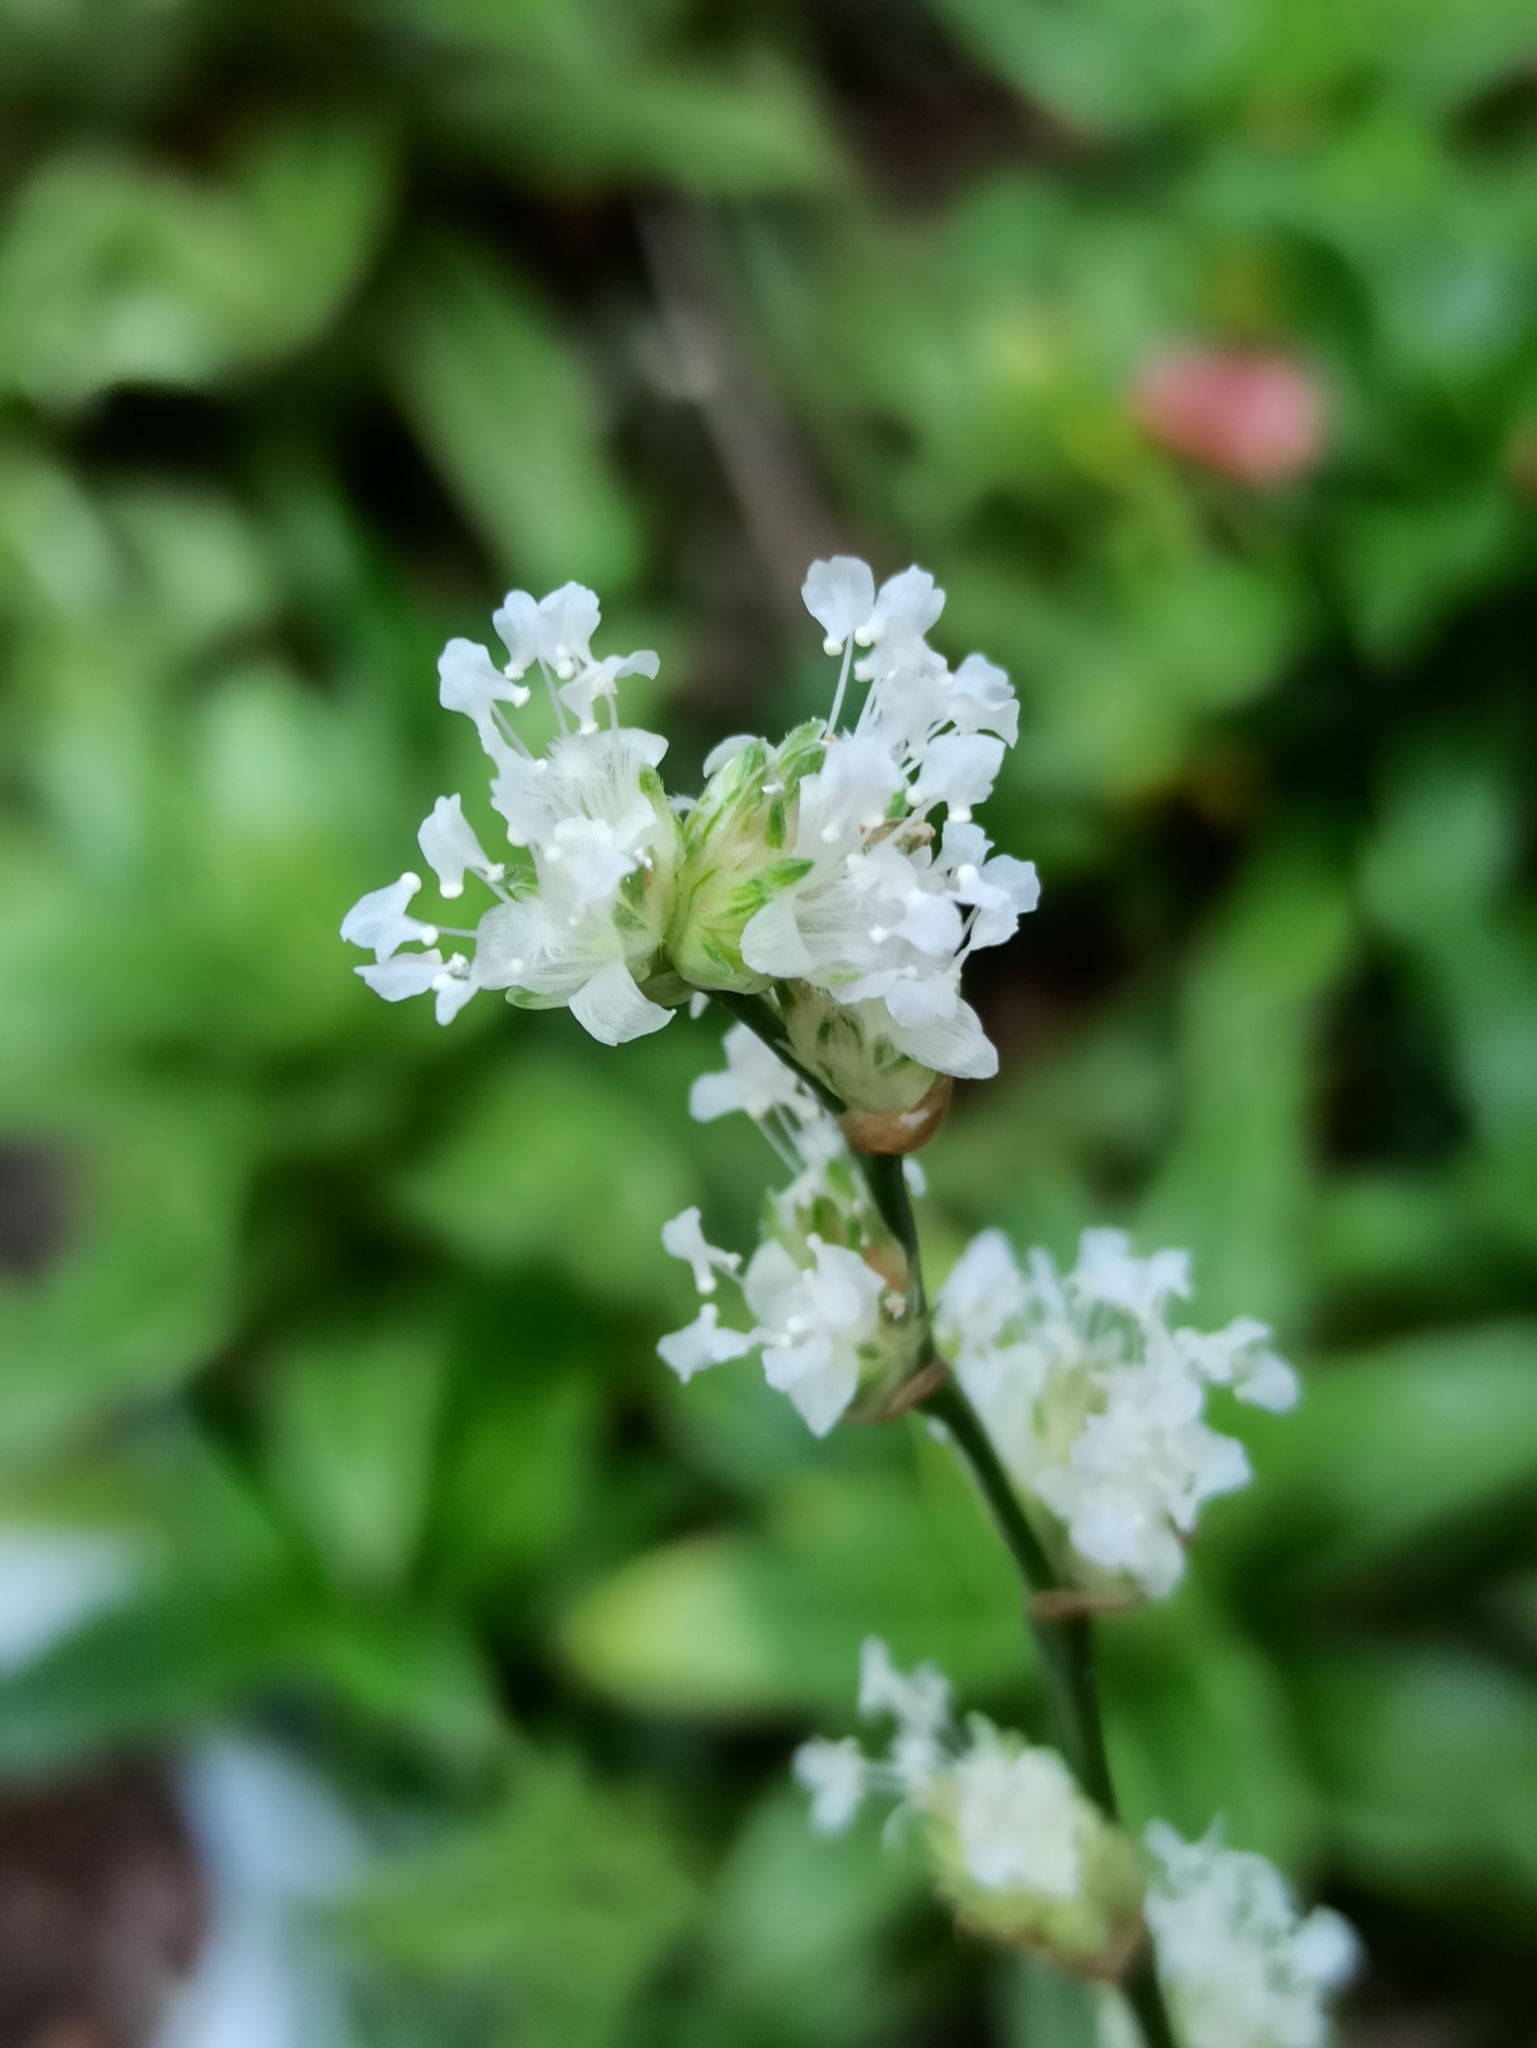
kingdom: Plantae
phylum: Tracheophyta
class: Liliopsida
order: Commelinales
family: Commelinaceae
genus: Callisia
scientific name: Callisia fragrans
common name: Basketplant
